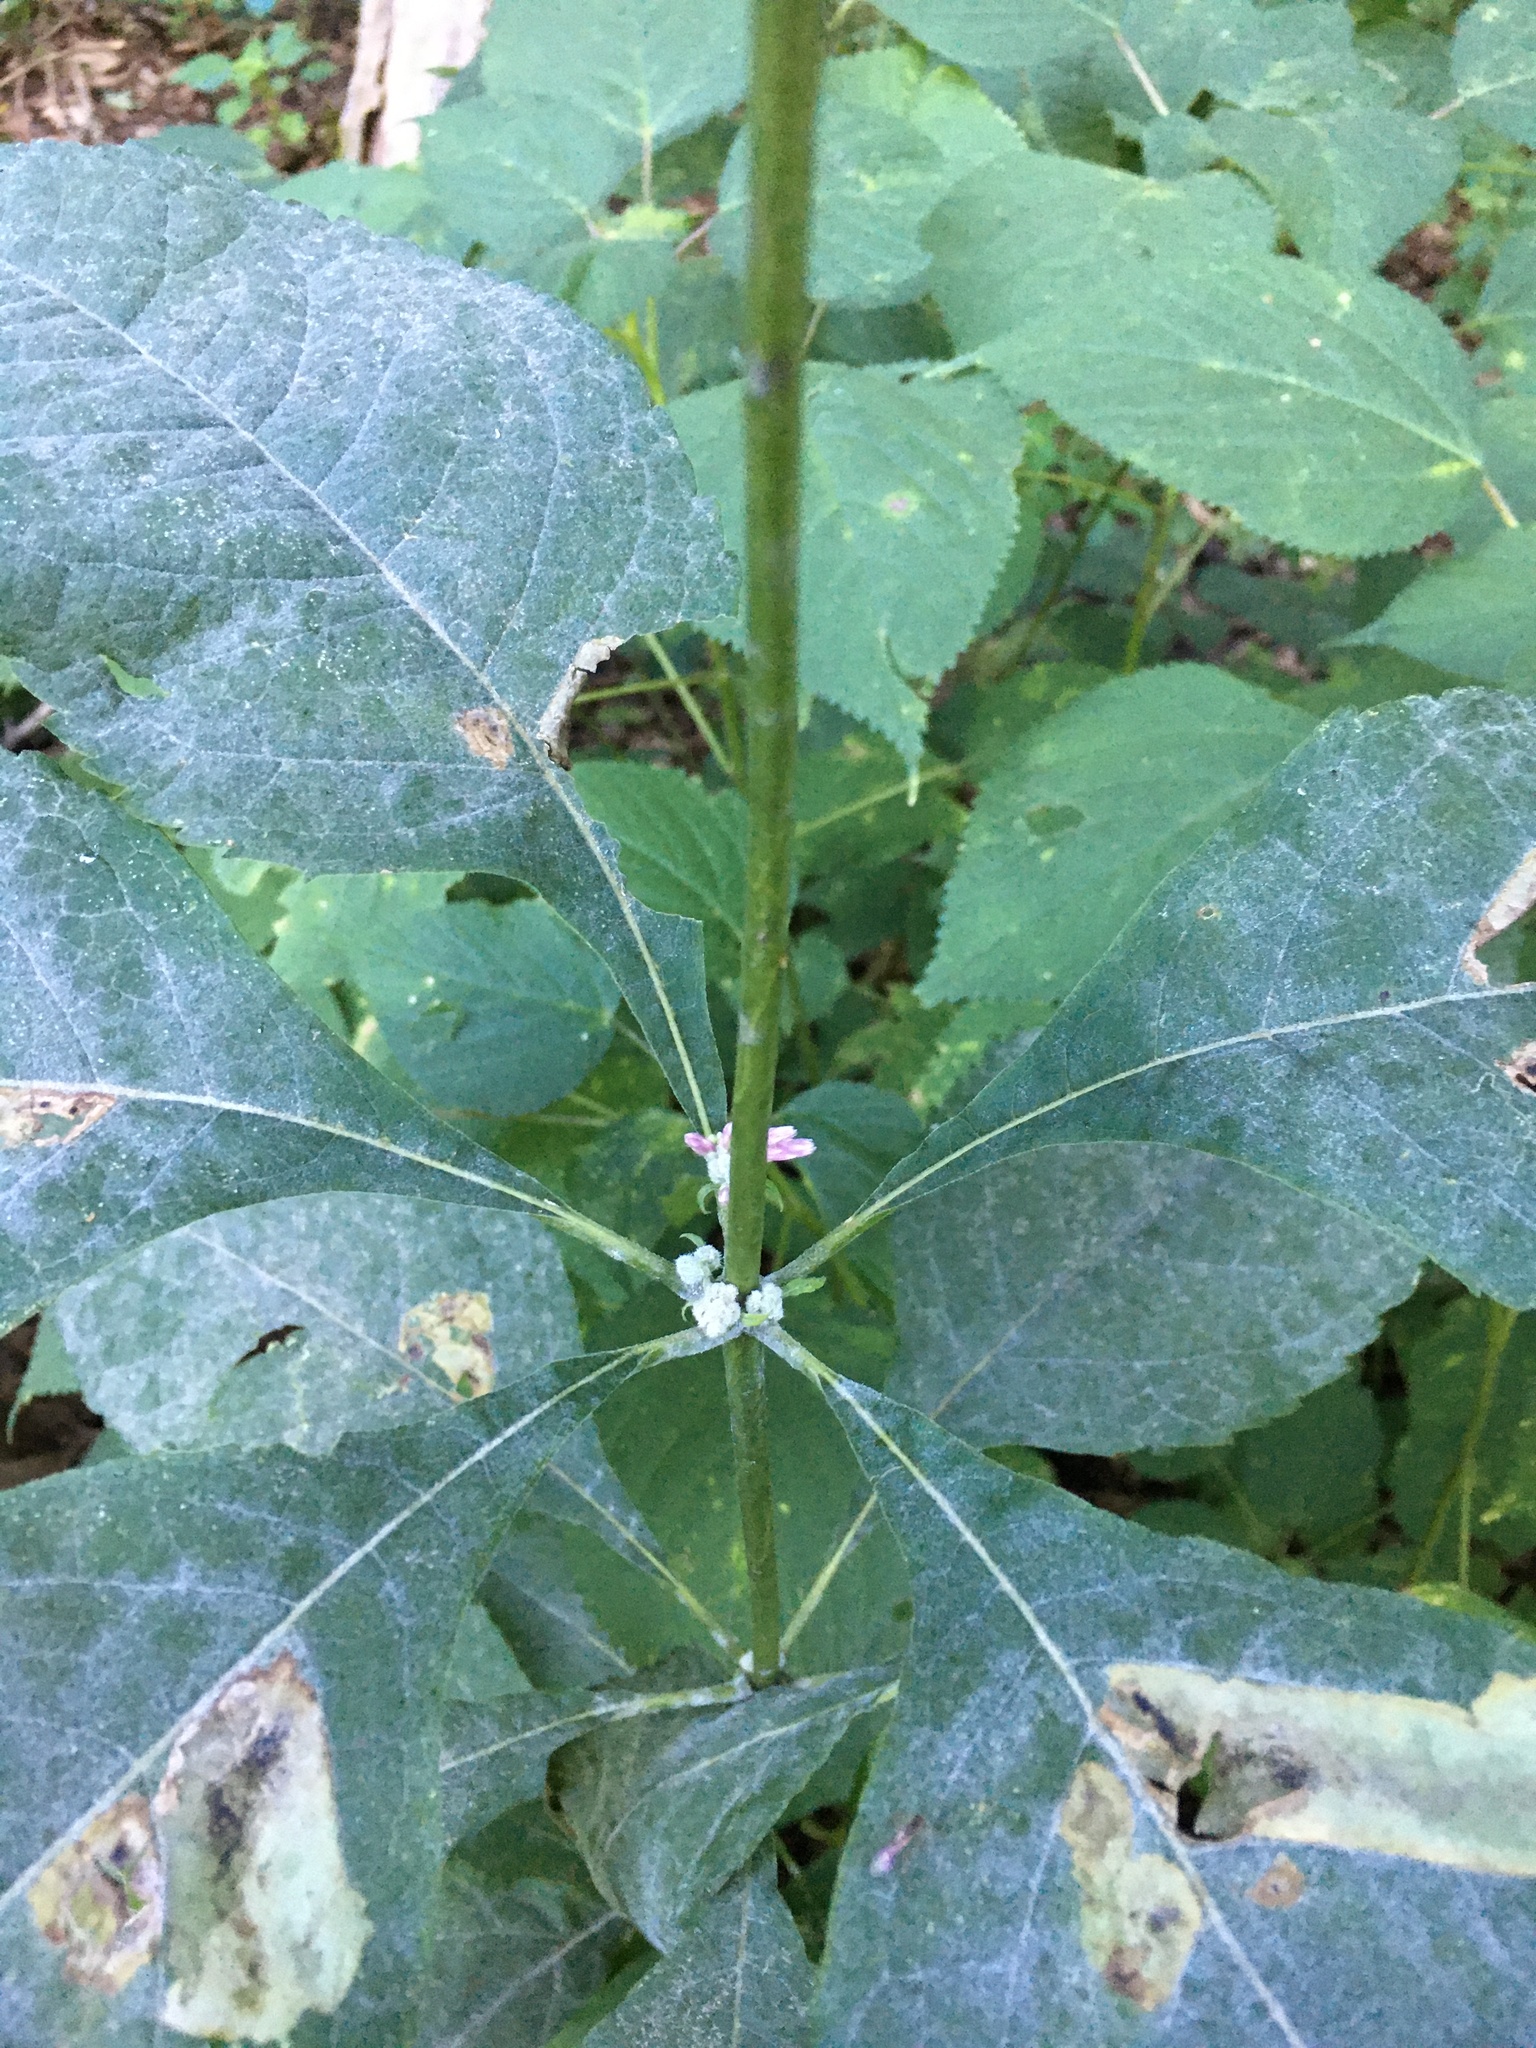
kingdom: Plantae
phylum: Tracheophyta
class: Magnoliopsida
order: Asterales
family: Asteraceae
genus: Eutrochium
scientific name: Eutrochium purpureum
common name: Gravelroot
